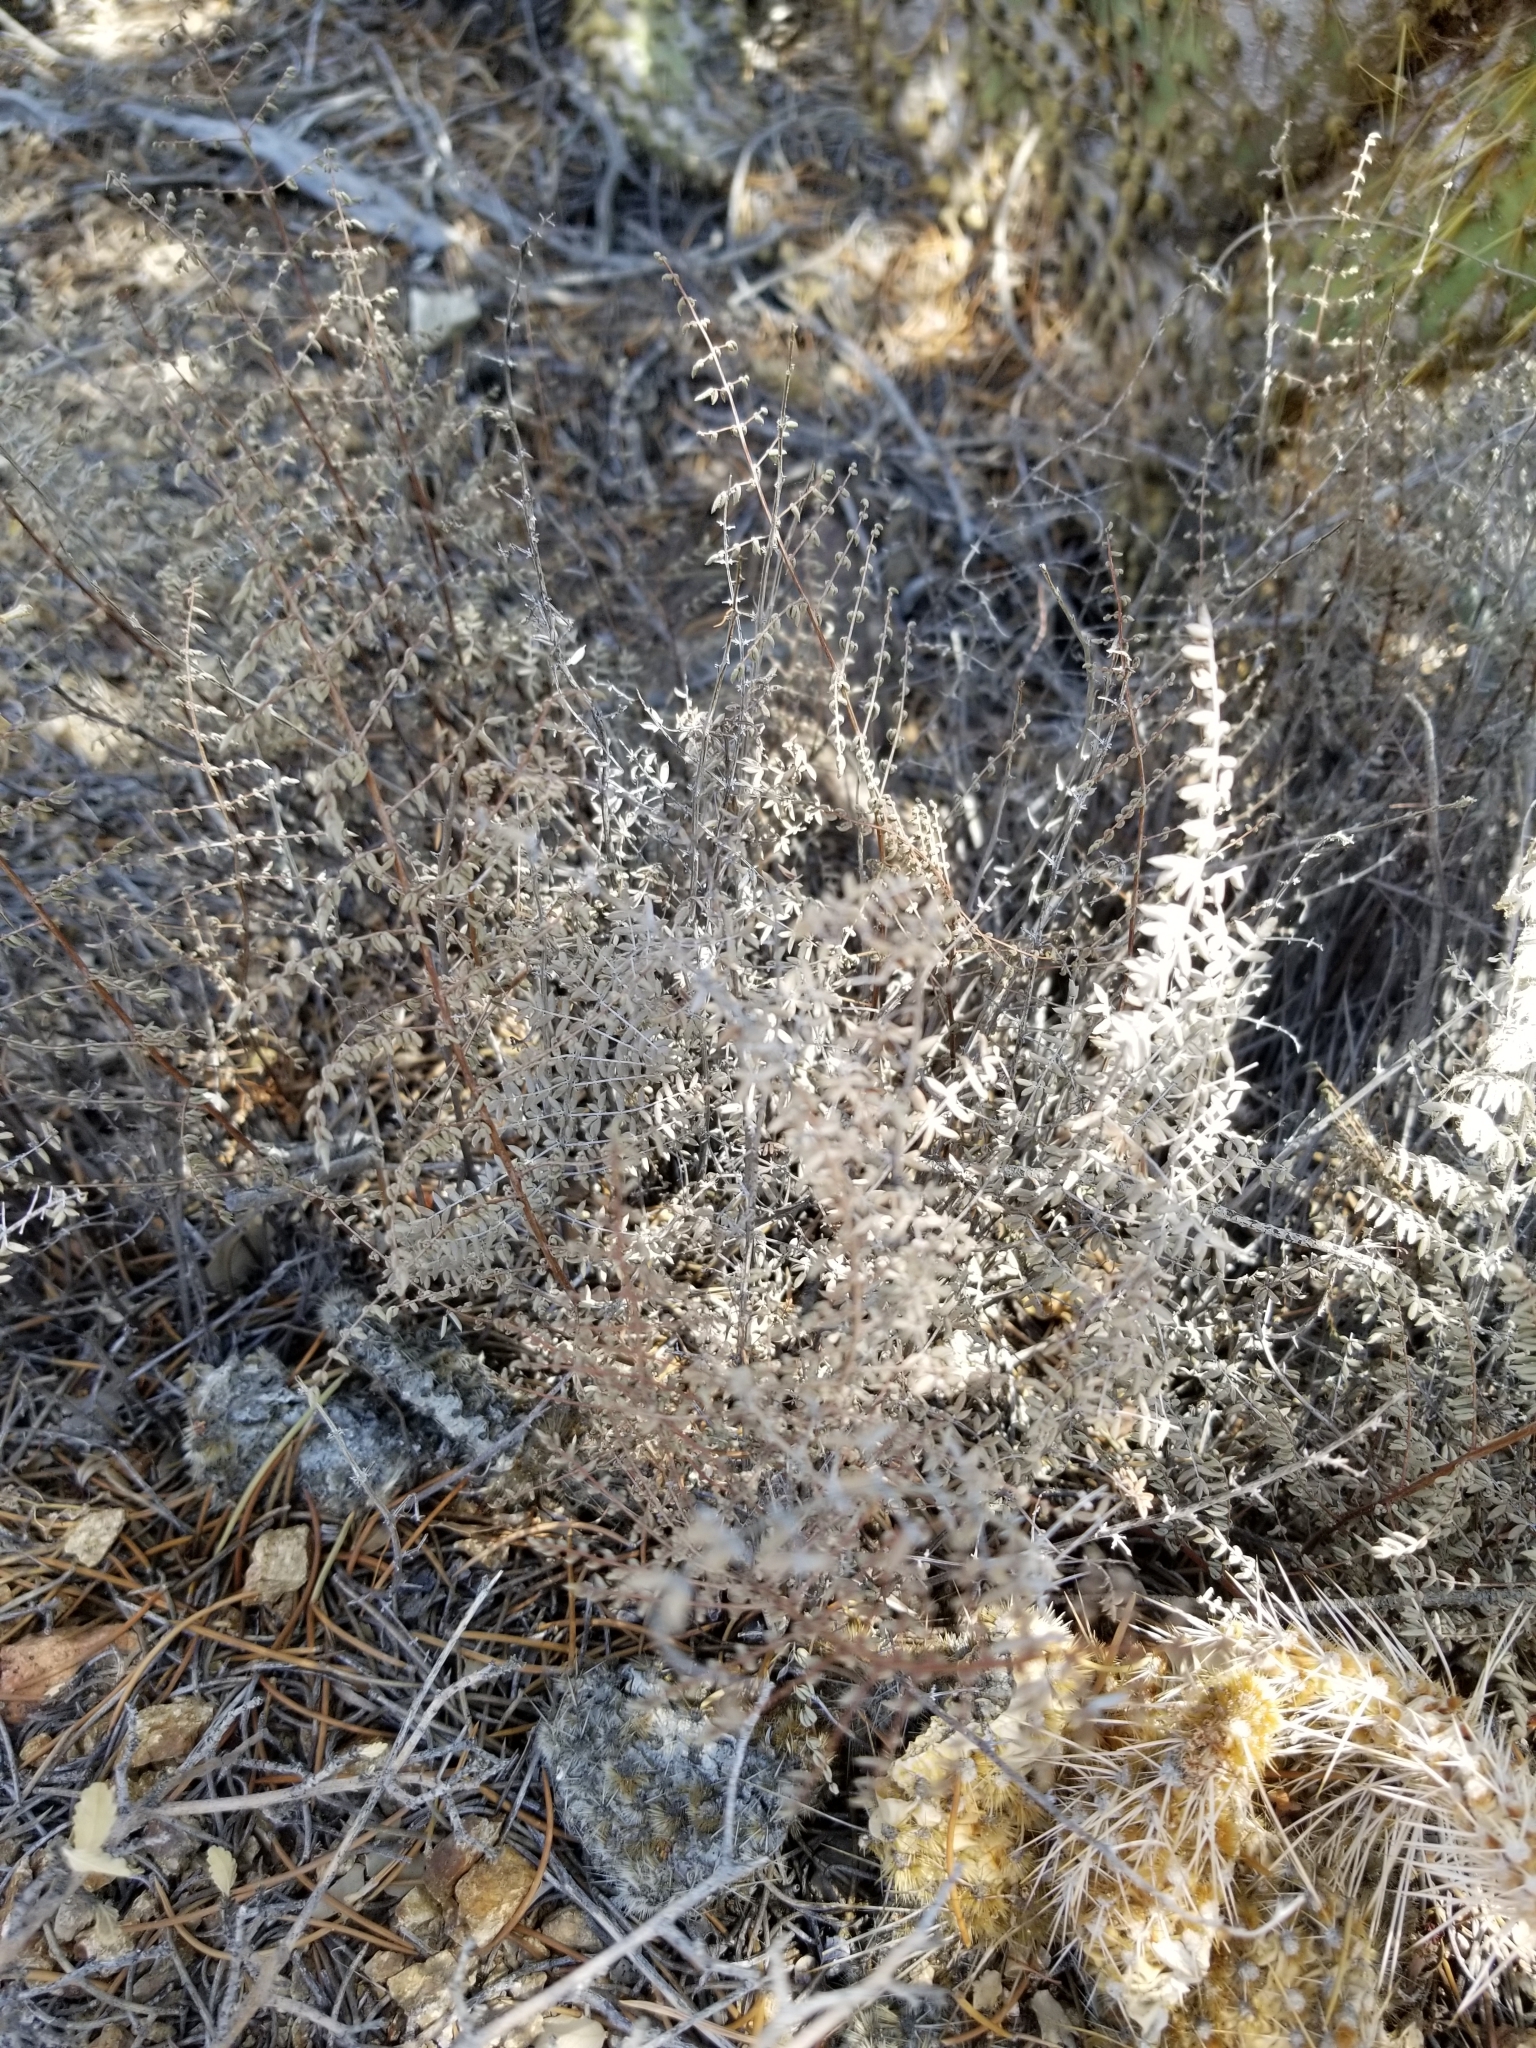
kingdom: Plantae
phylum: Tracheophyta
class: Polypodiopsida
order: Polypodiales
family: Pteridaceae
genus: Pellaea
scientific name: Pellaea mucronata
